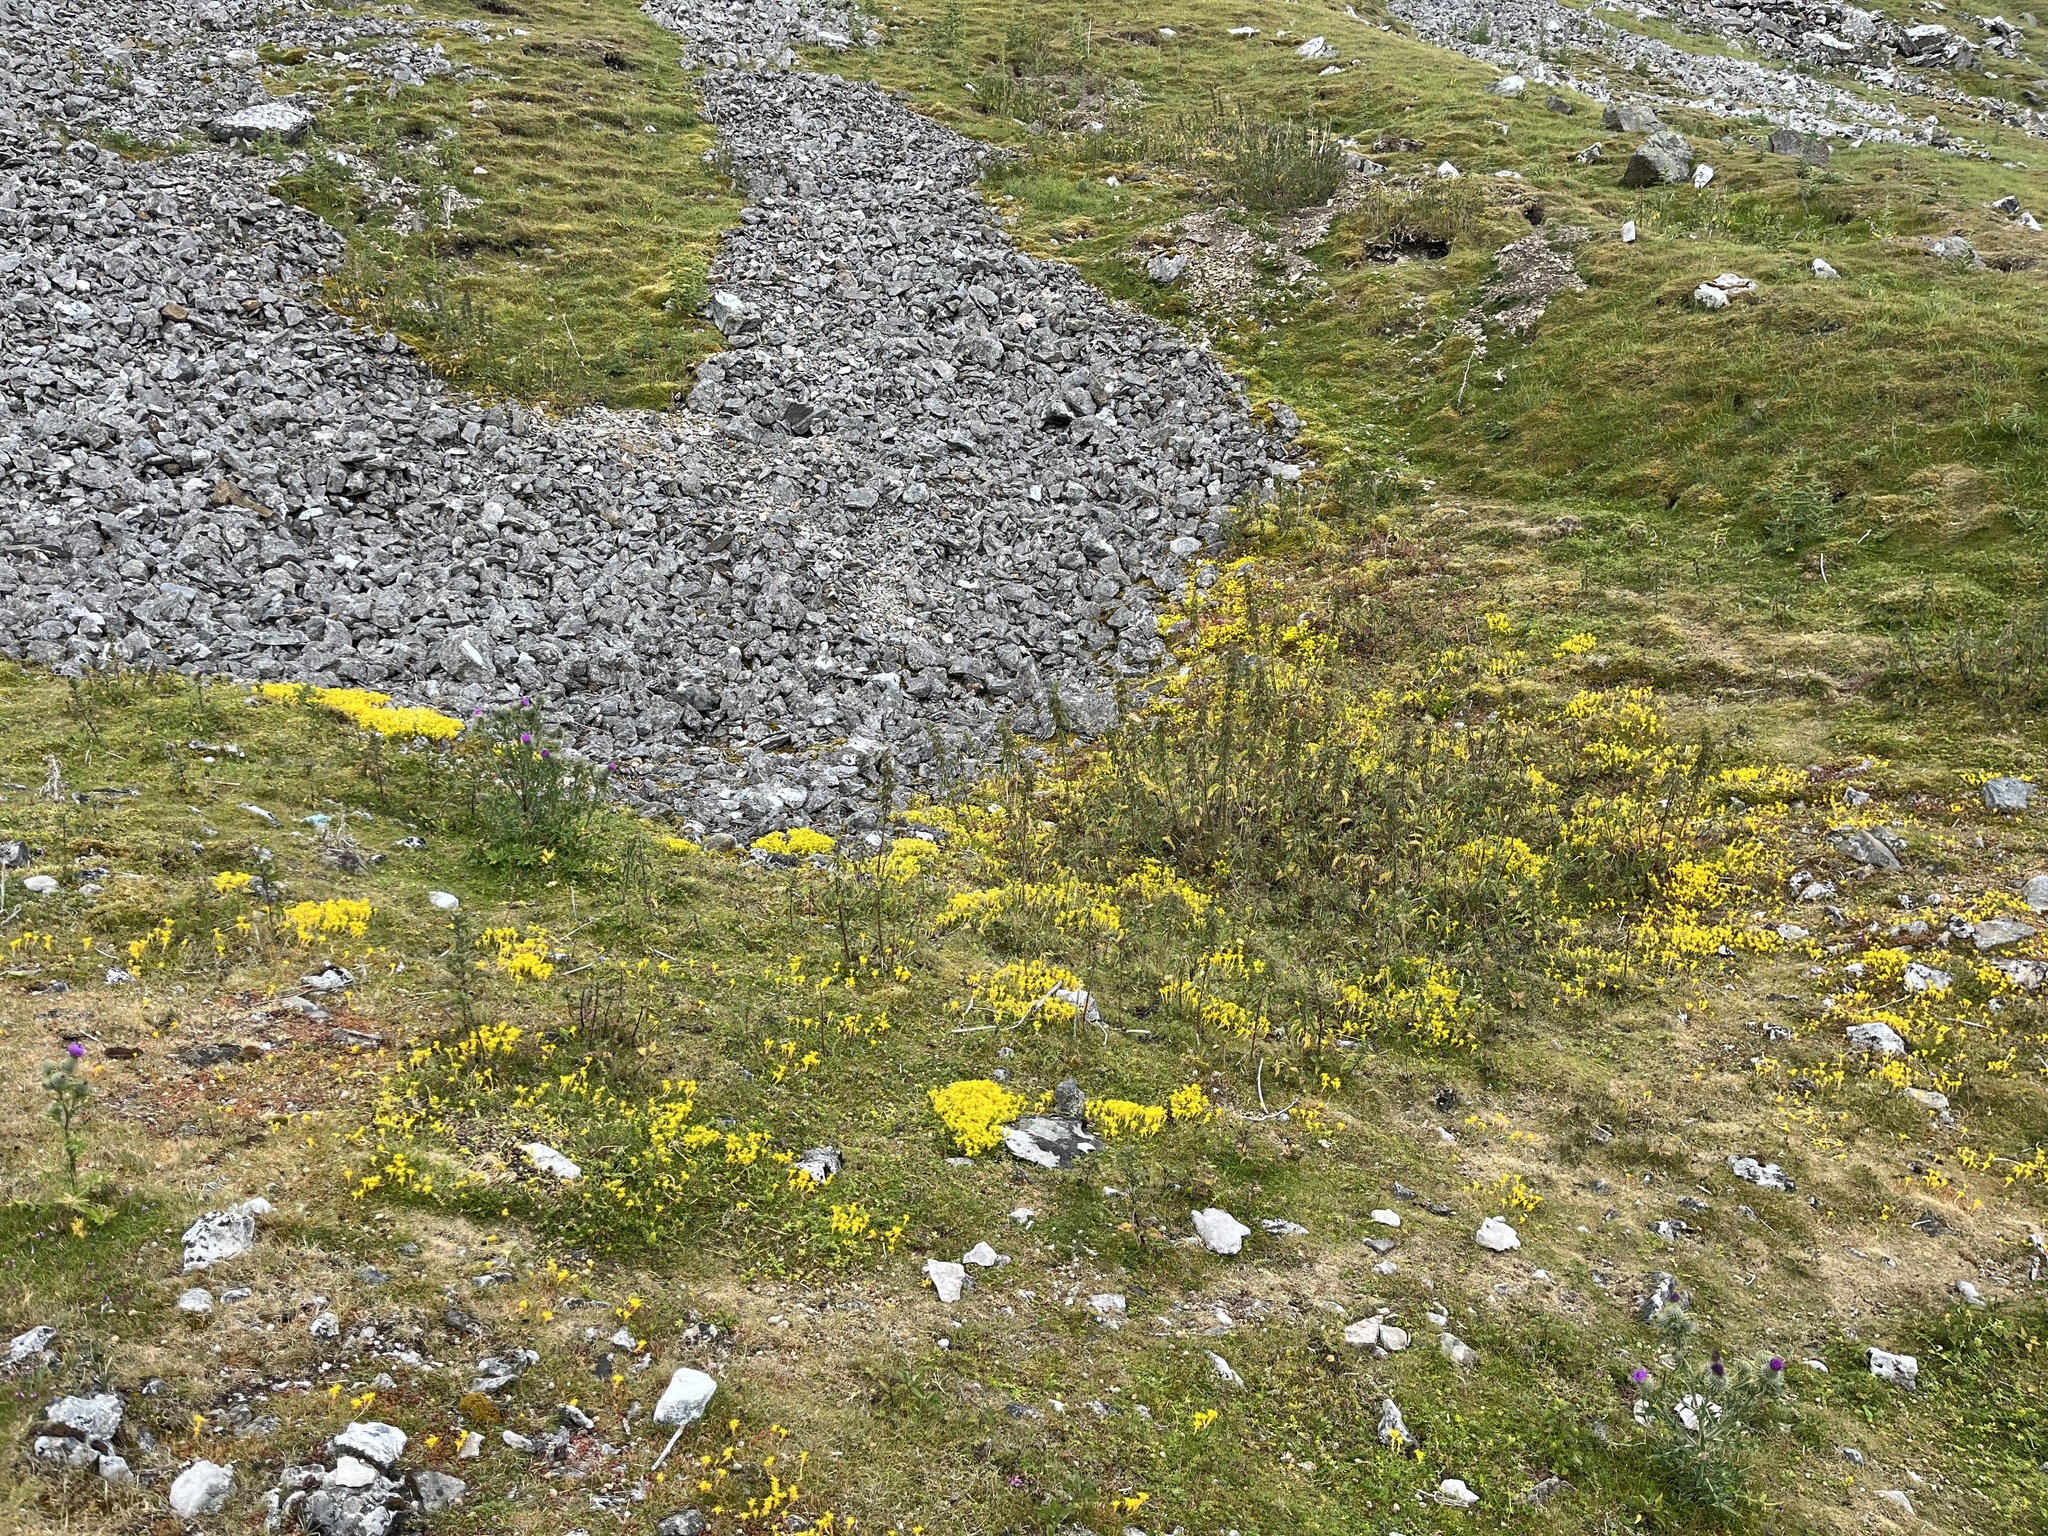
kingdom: Plantae
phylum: Tracheophyta
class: Magnoliopsida
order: Saxifragales
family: Crassulaceae
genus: Sedum
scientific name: Sedum acre
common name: Biting stonecrop
